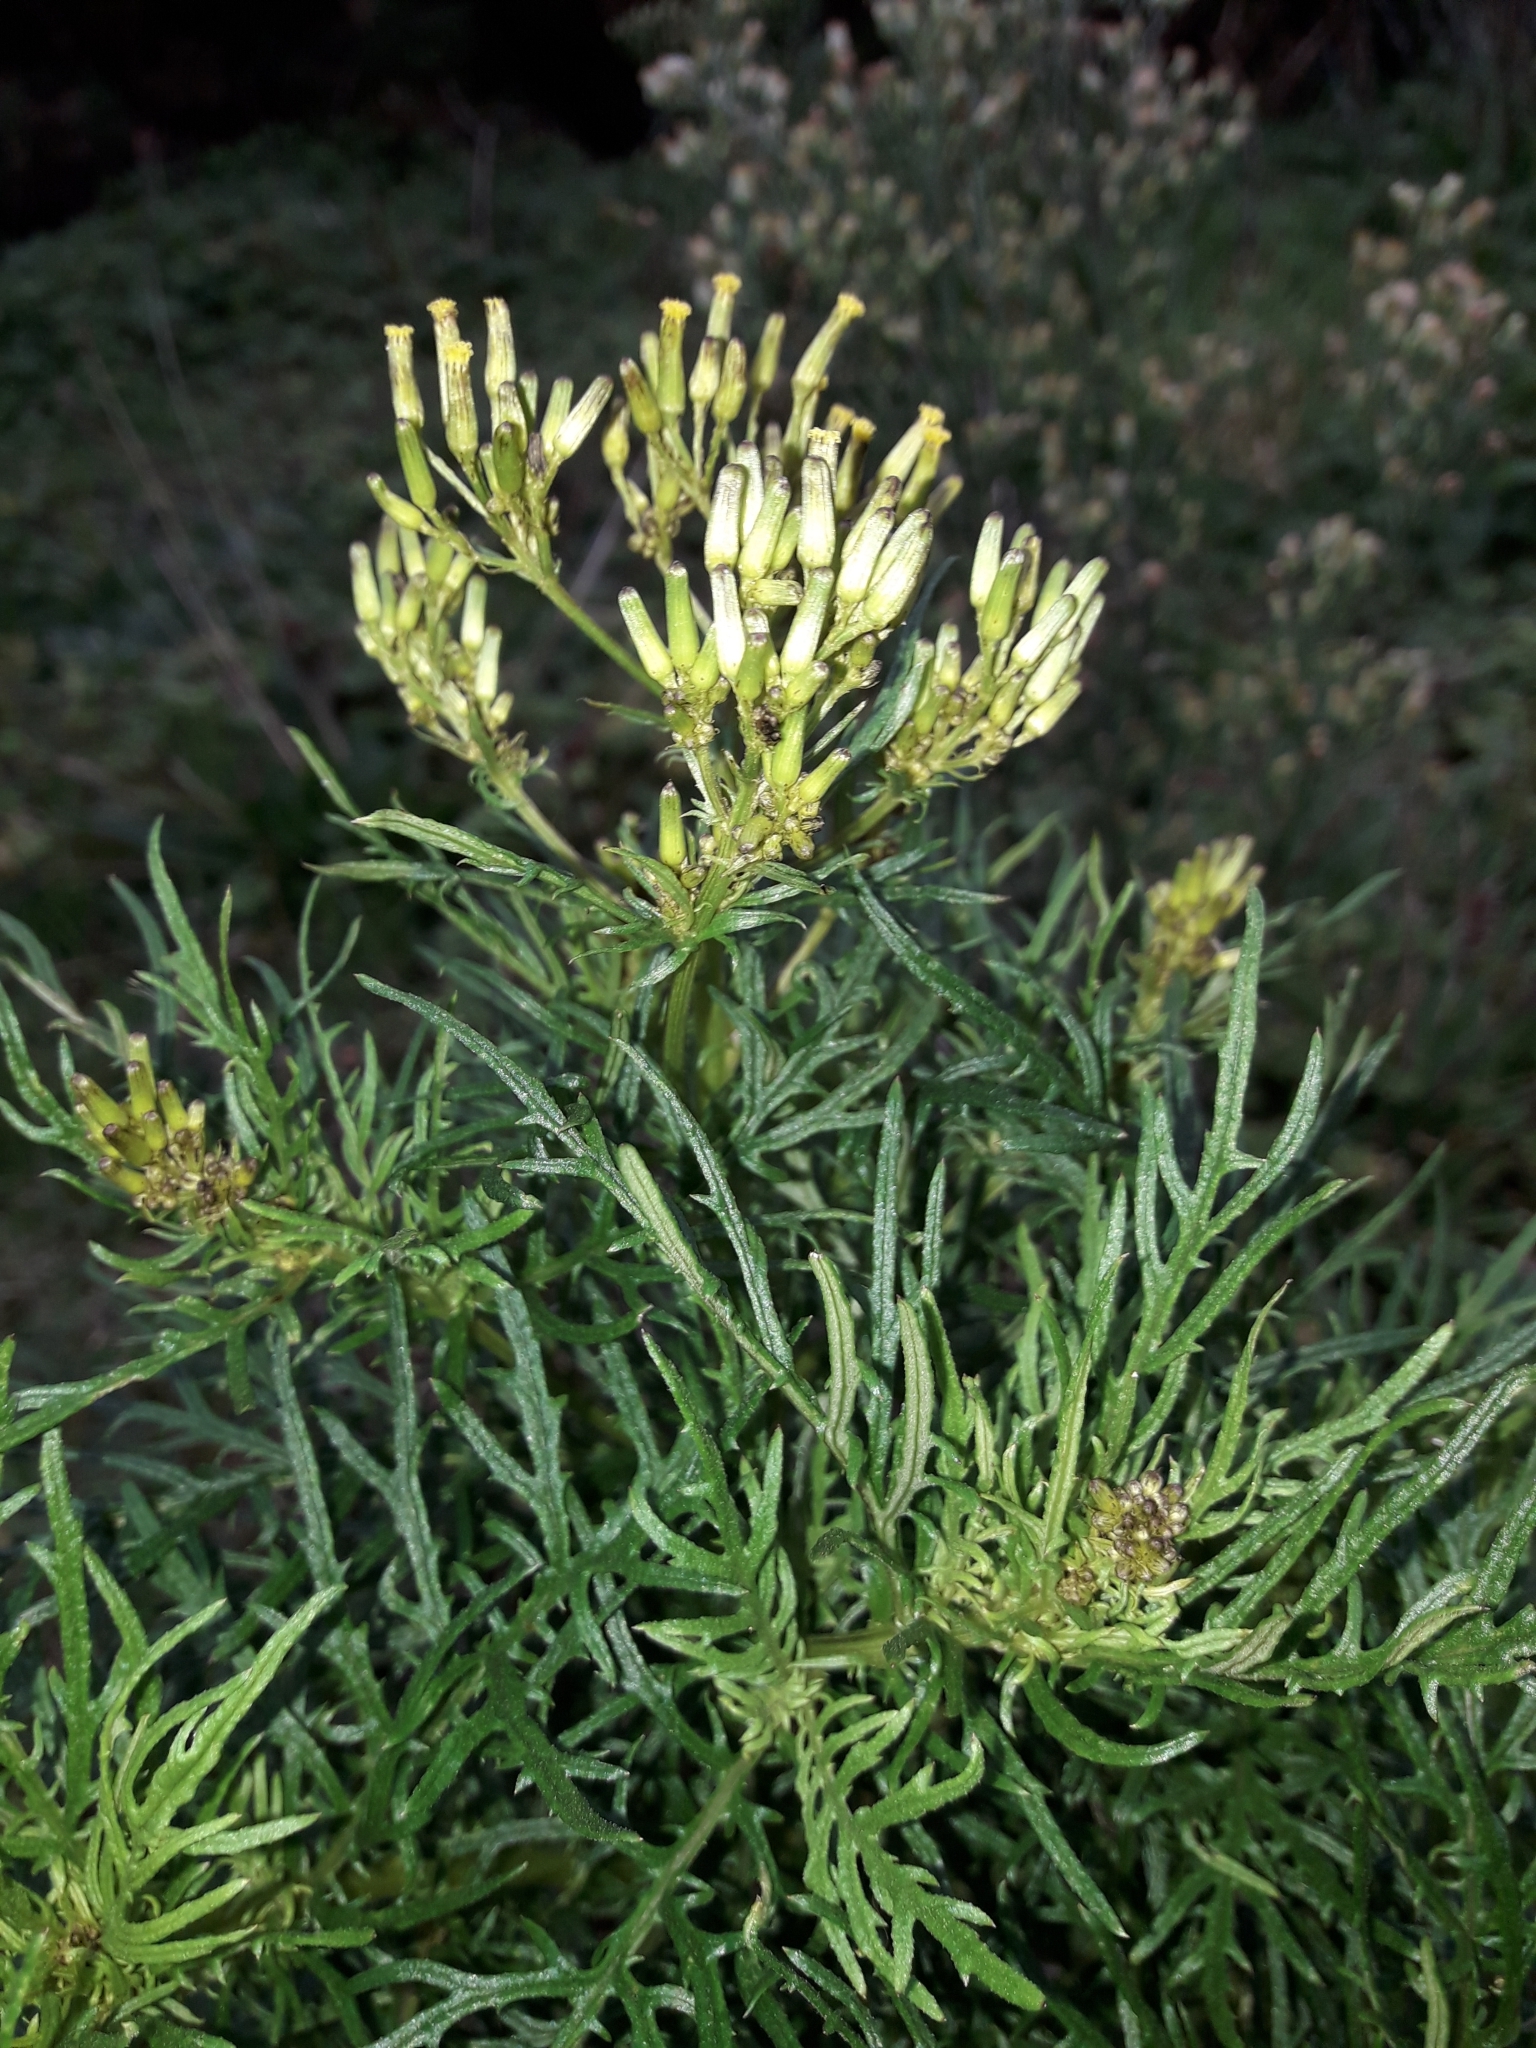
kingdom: Plantae
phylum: Tracheophyta
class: Magnoliopsida
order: Asterales
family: Asteraceae
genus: Senecio
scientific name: Senecio bipinnatisectus
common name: Australian fireweed
